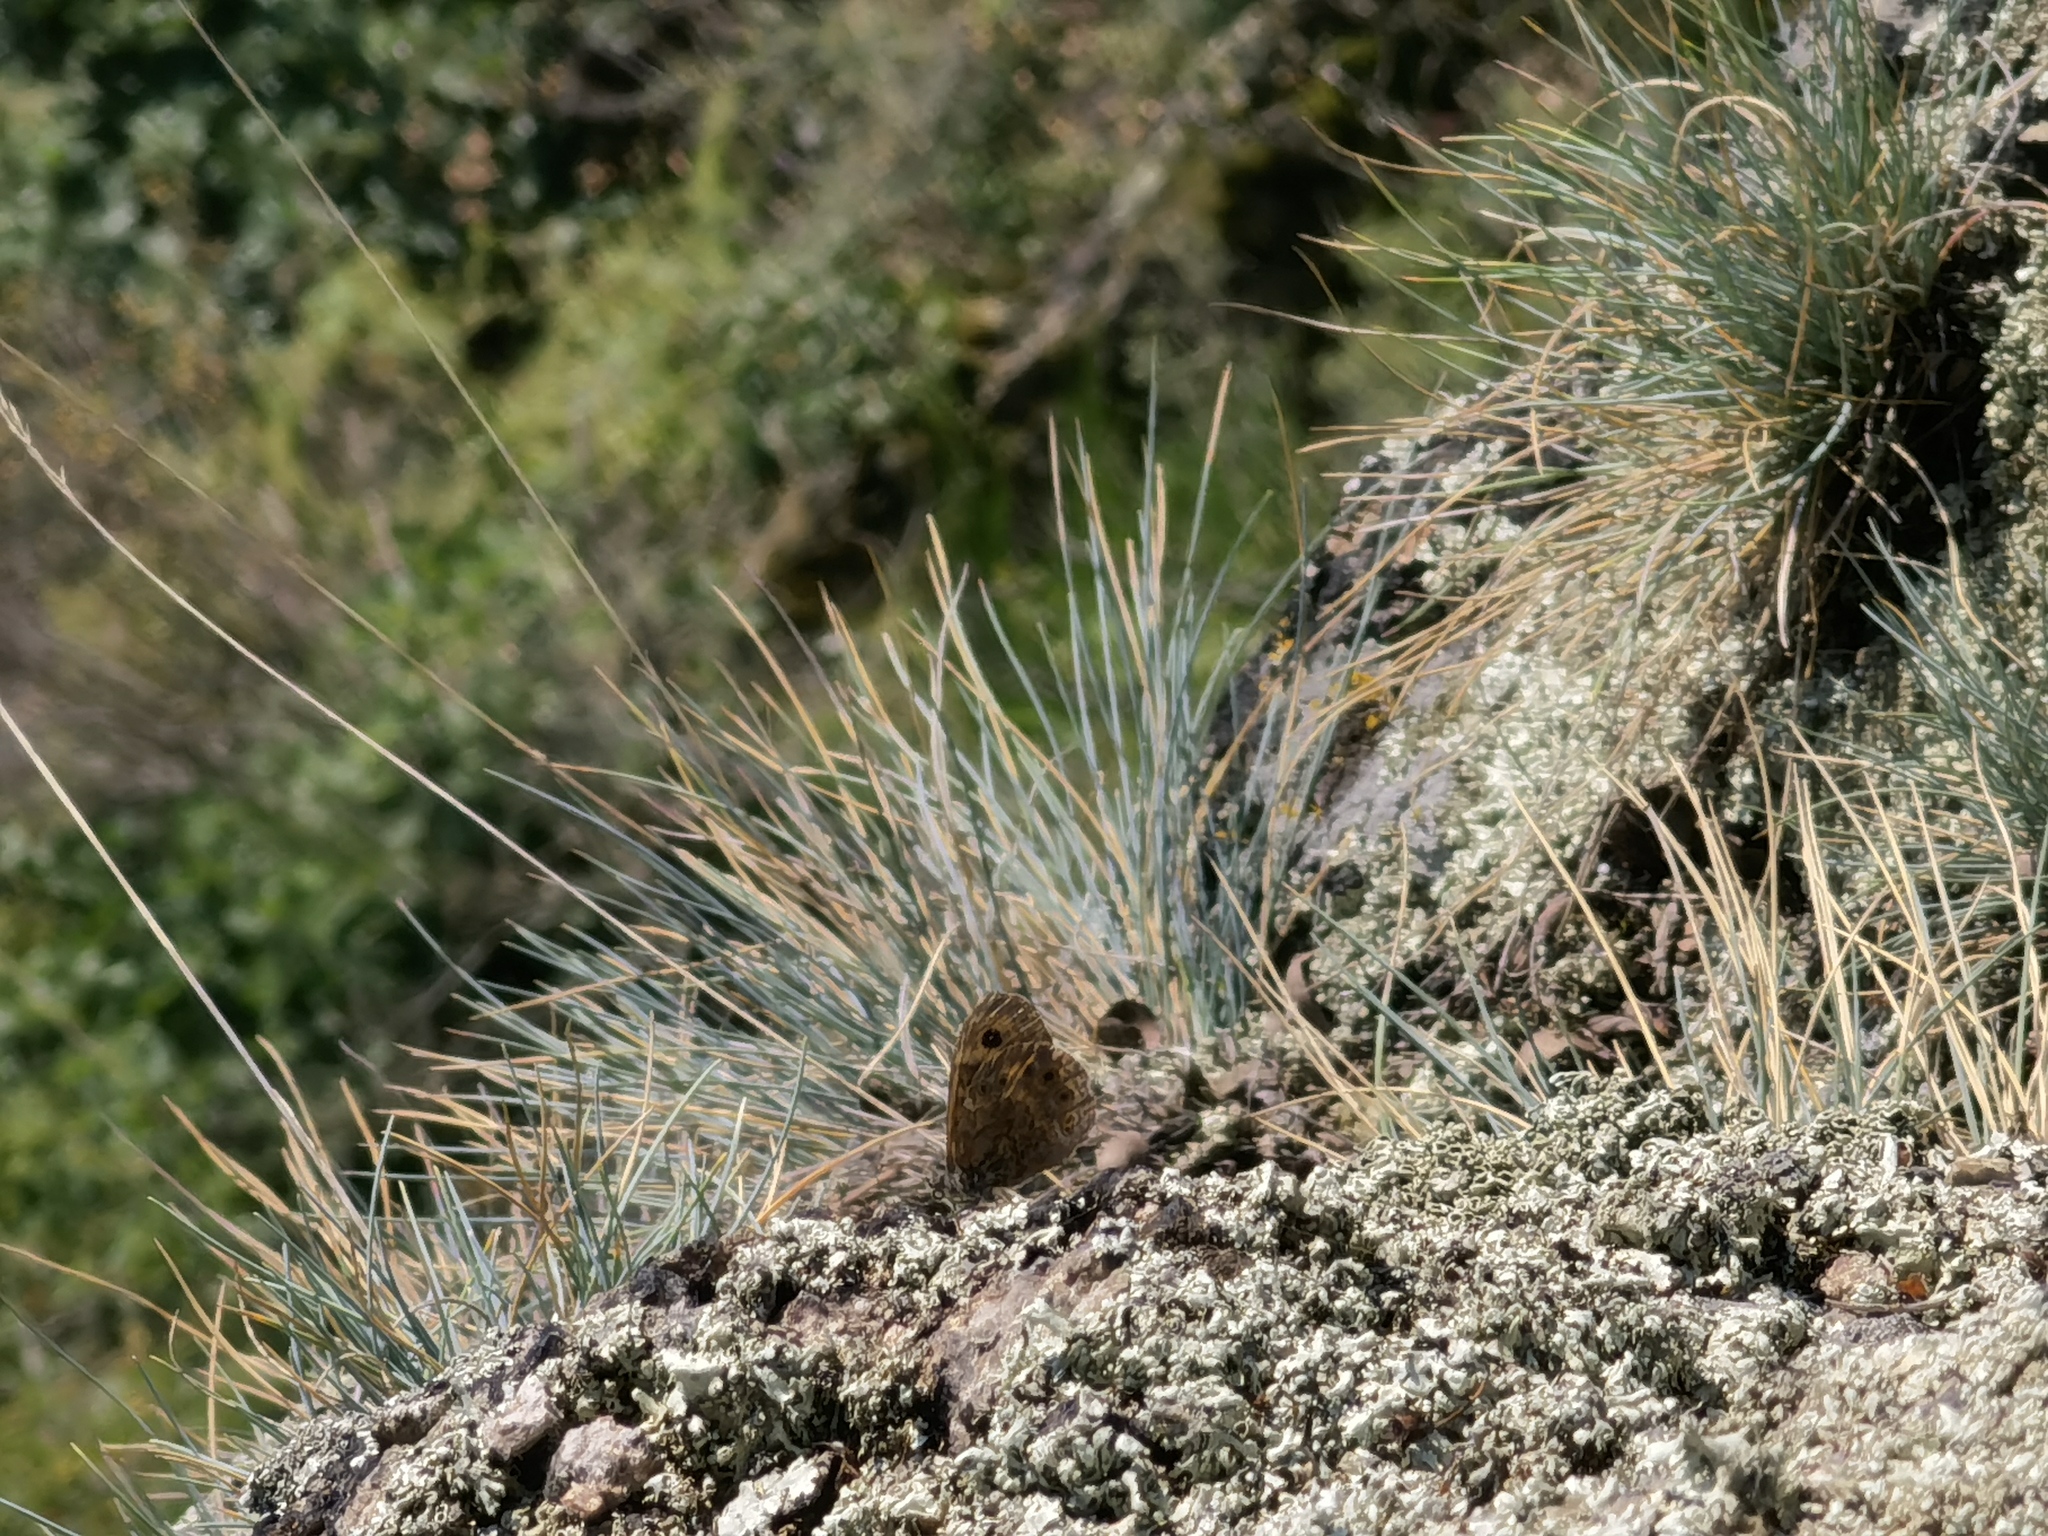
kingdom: Animalia
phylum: Arthropoda
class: Insecta
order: Lepidoptera
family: Nymphalidae
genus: Pararge
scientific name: Pararge Lasiommata megera
